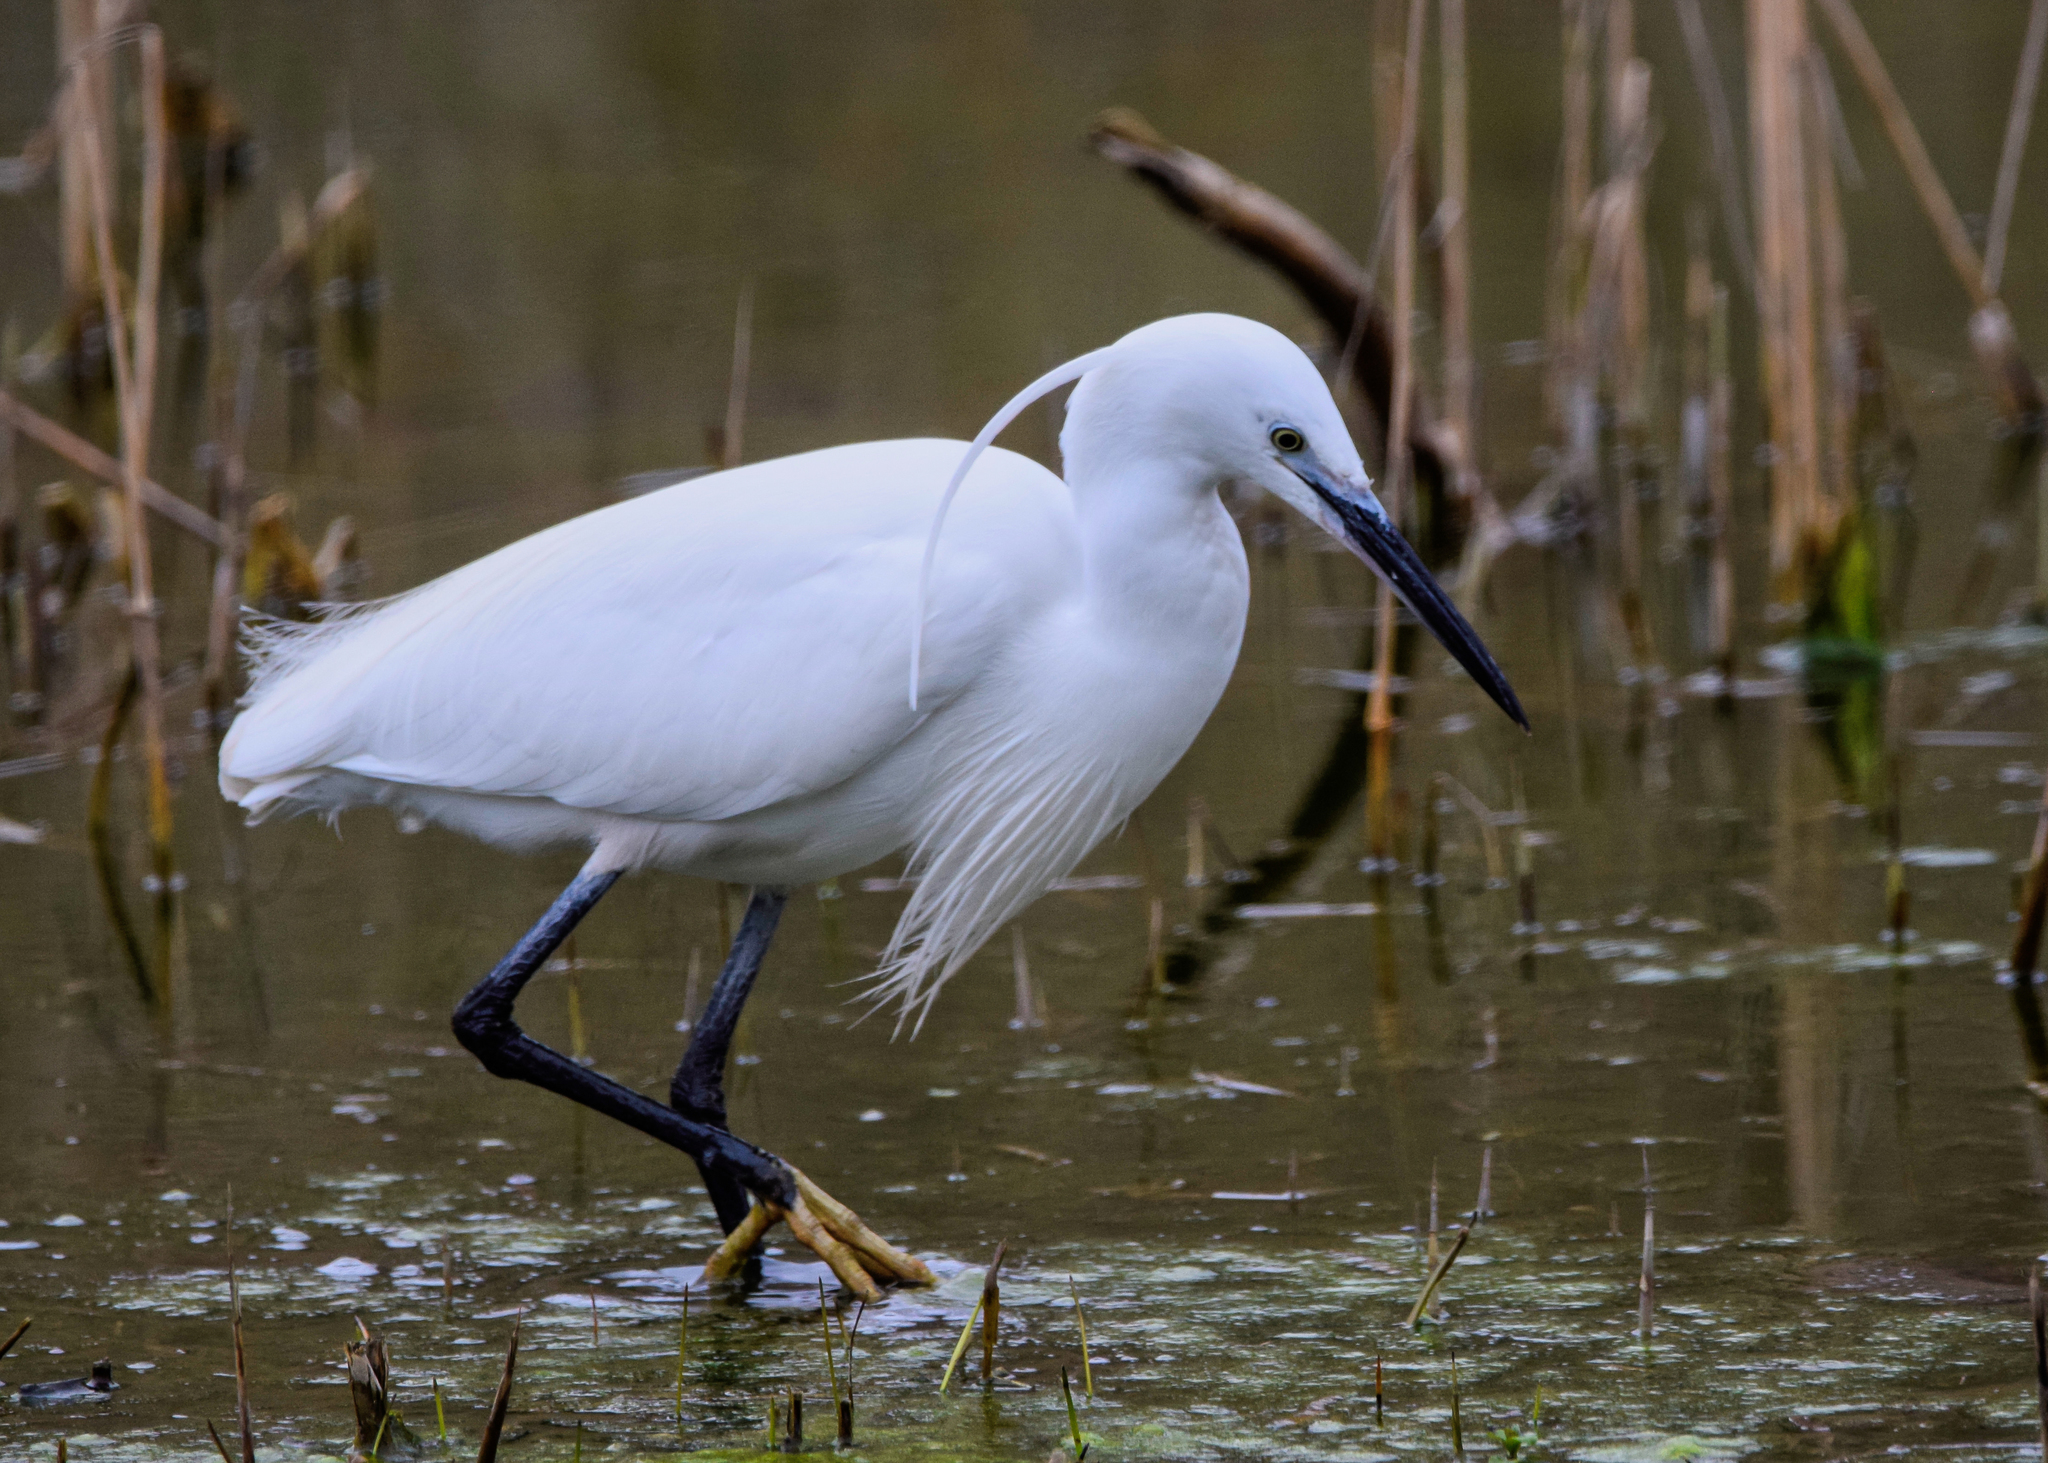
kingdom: Animalia
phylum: Chordata
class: Aves
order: Pelecaniformes
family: Ardeidae
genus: Egretta
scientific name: Egretta garzetta
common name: Little egret
